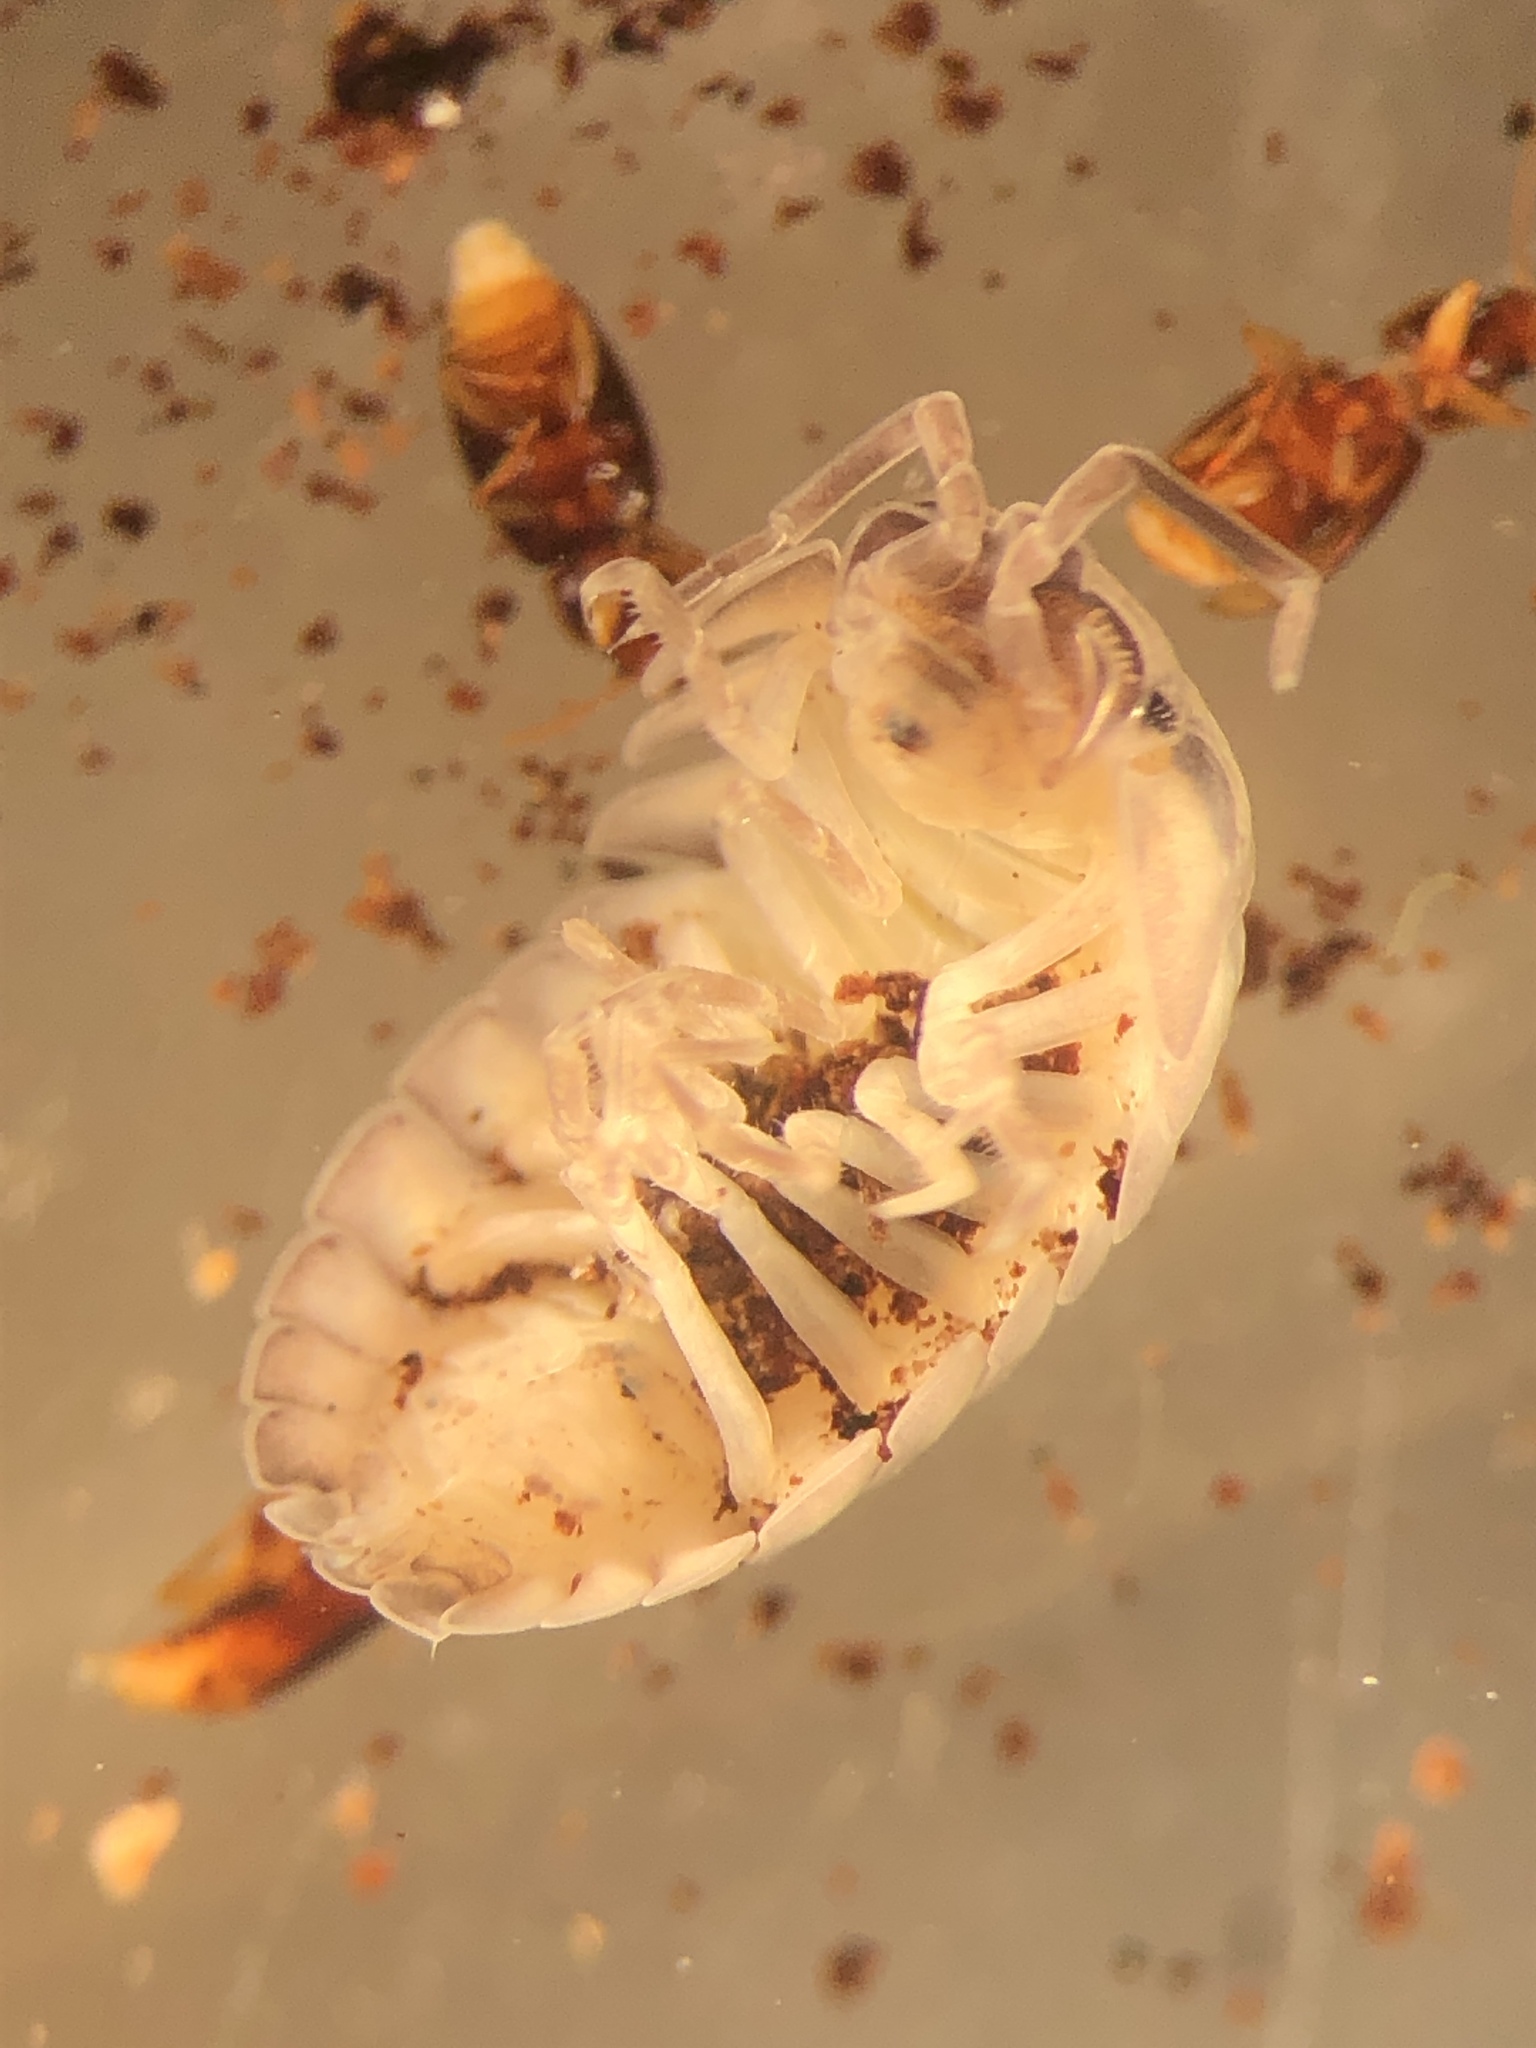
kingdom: Animalia
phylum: Arthropoda
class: Malacostraca
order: Isopoda
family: Armadillidiidae
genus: Armadillidium
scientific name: Armadillidium nasatum
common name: Isopod
